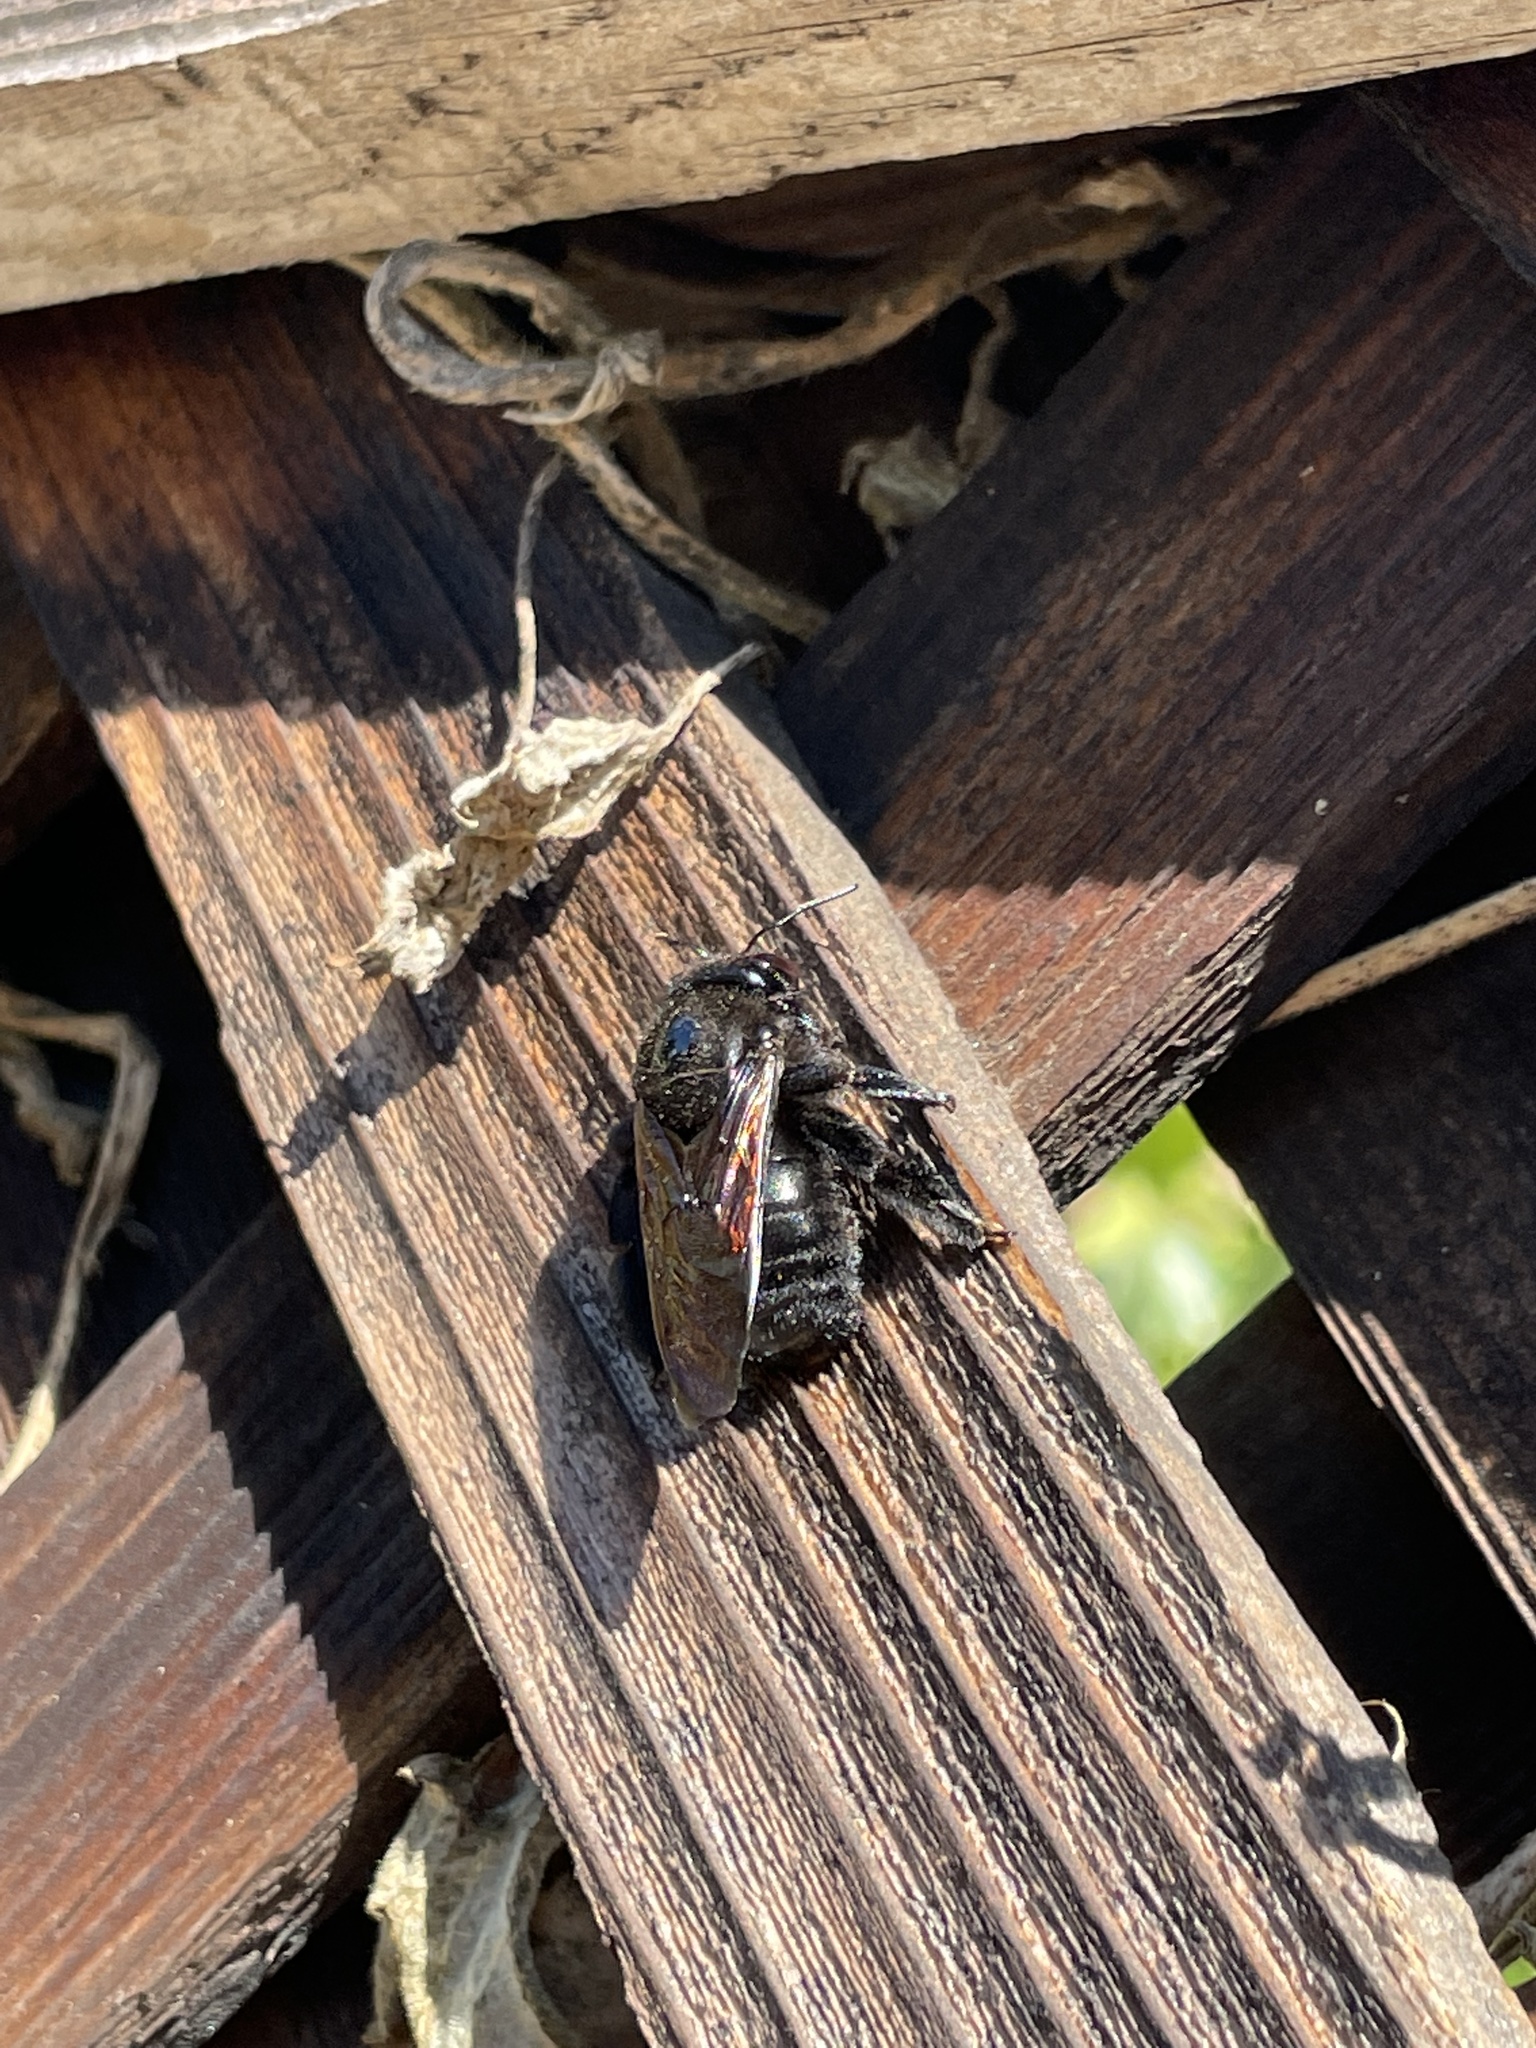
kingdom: Animalia
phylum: Arthropoda
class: Insecta
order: Hymenoptera
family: Apidae
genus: Xylocopa
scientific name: Xylocopa sonorina
